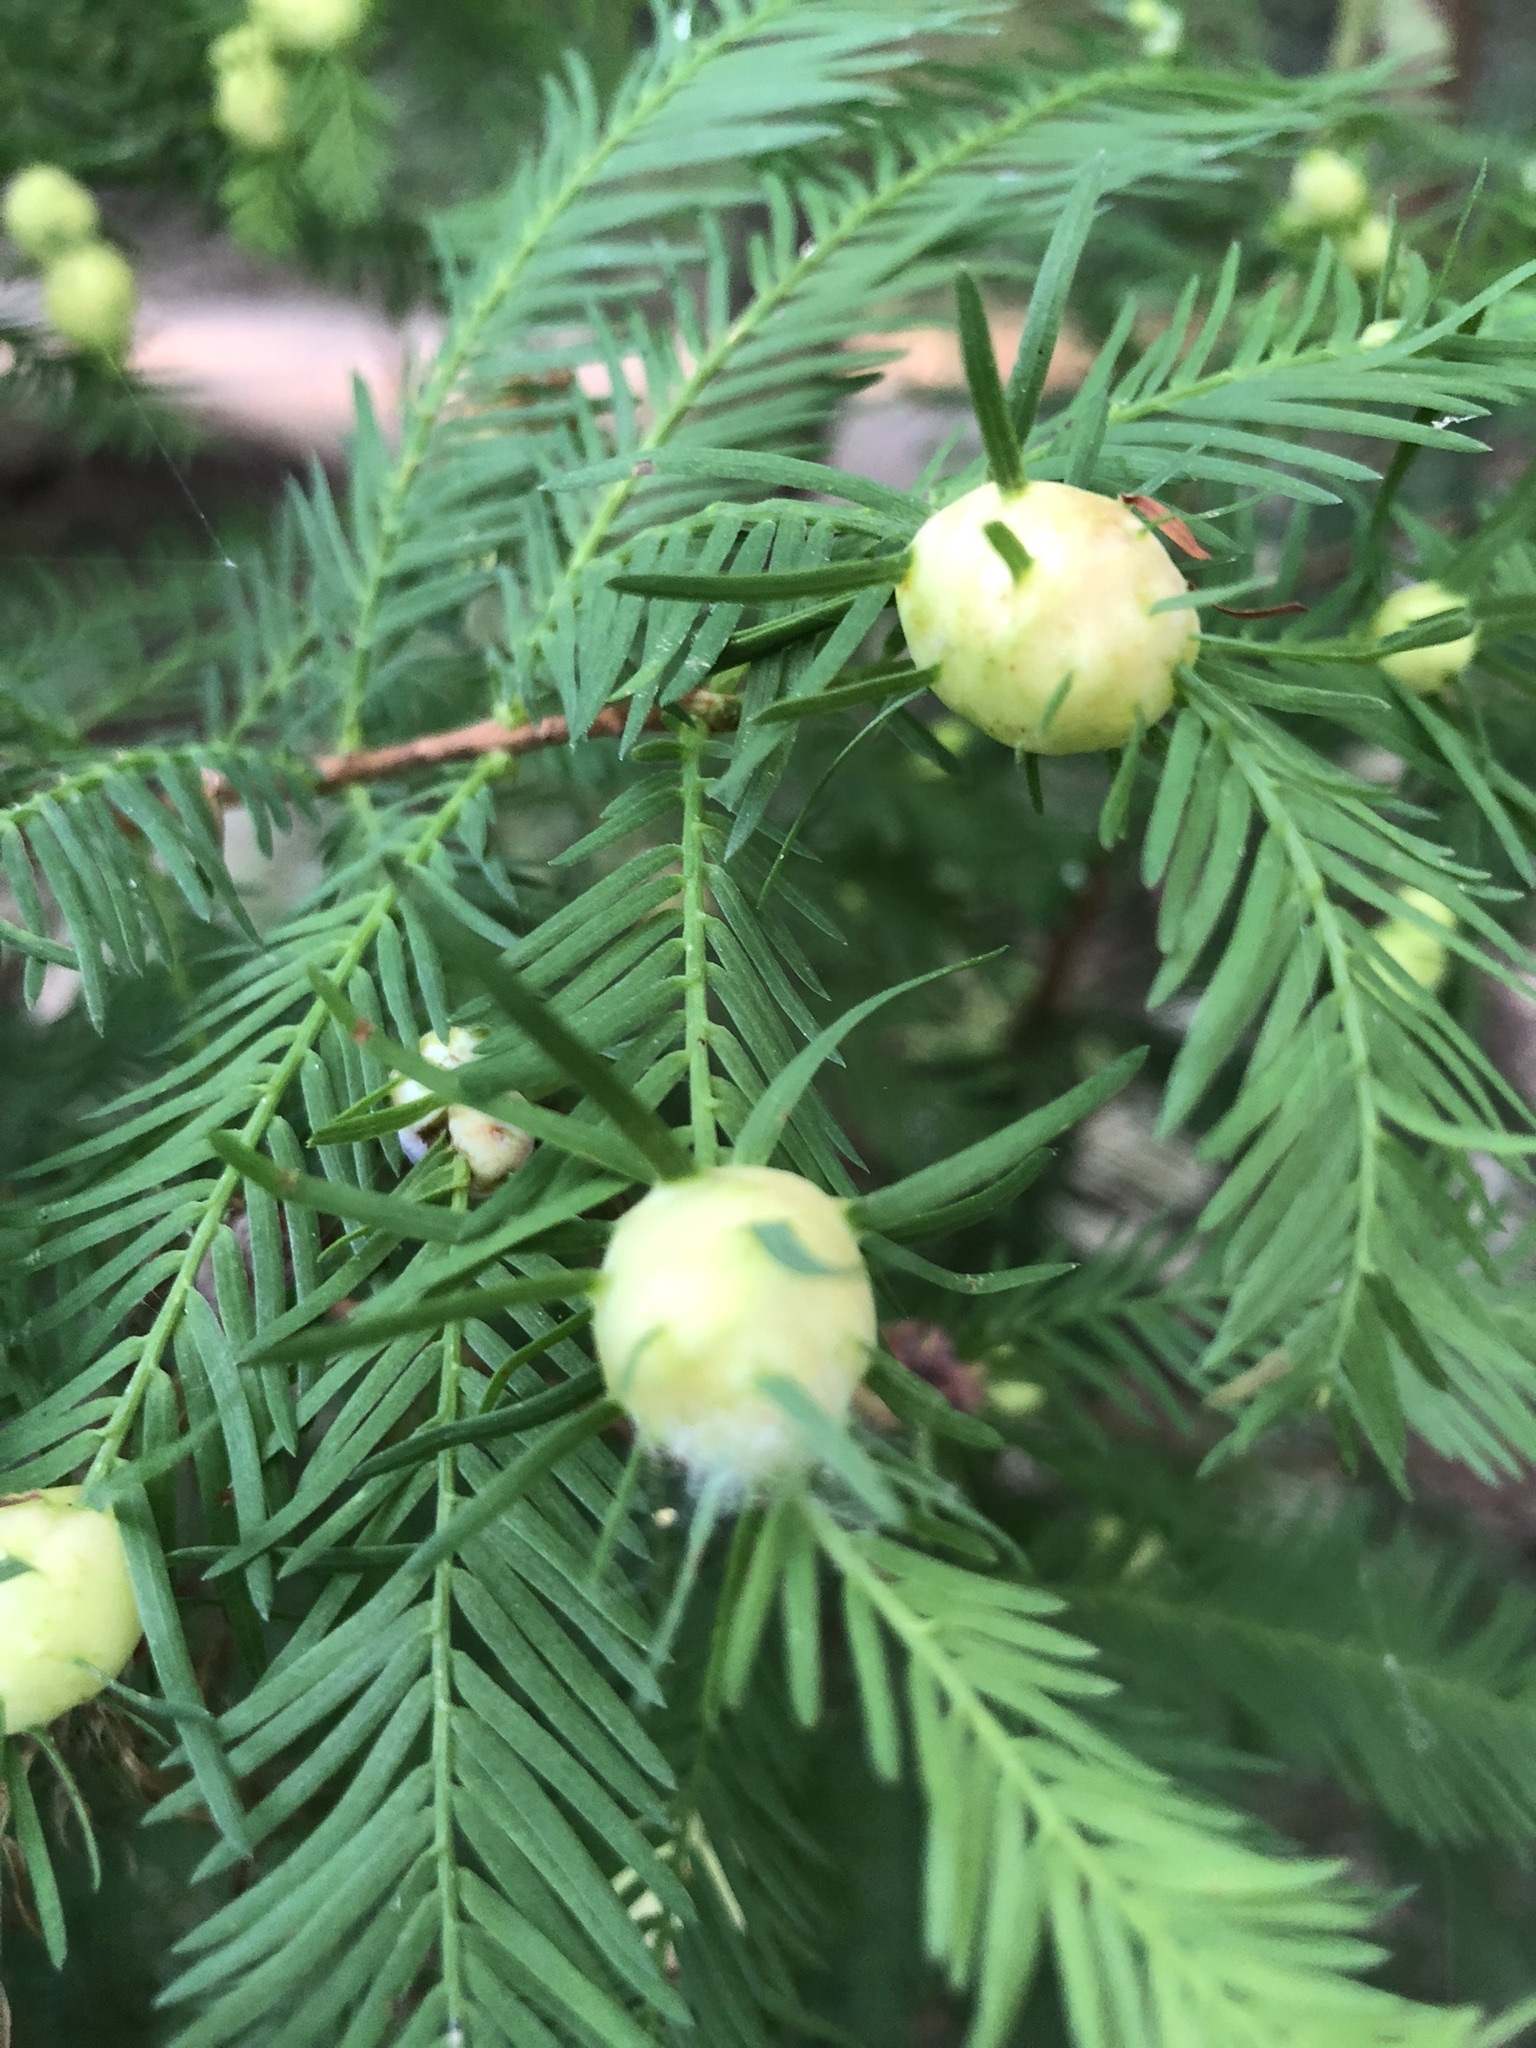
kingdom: Animalia
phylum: Arthropoda
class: Insecta
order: Diptera
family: Cecidomyiidae
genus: Taxodiomyia
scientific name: Taxodiomyia cupressiananassa
